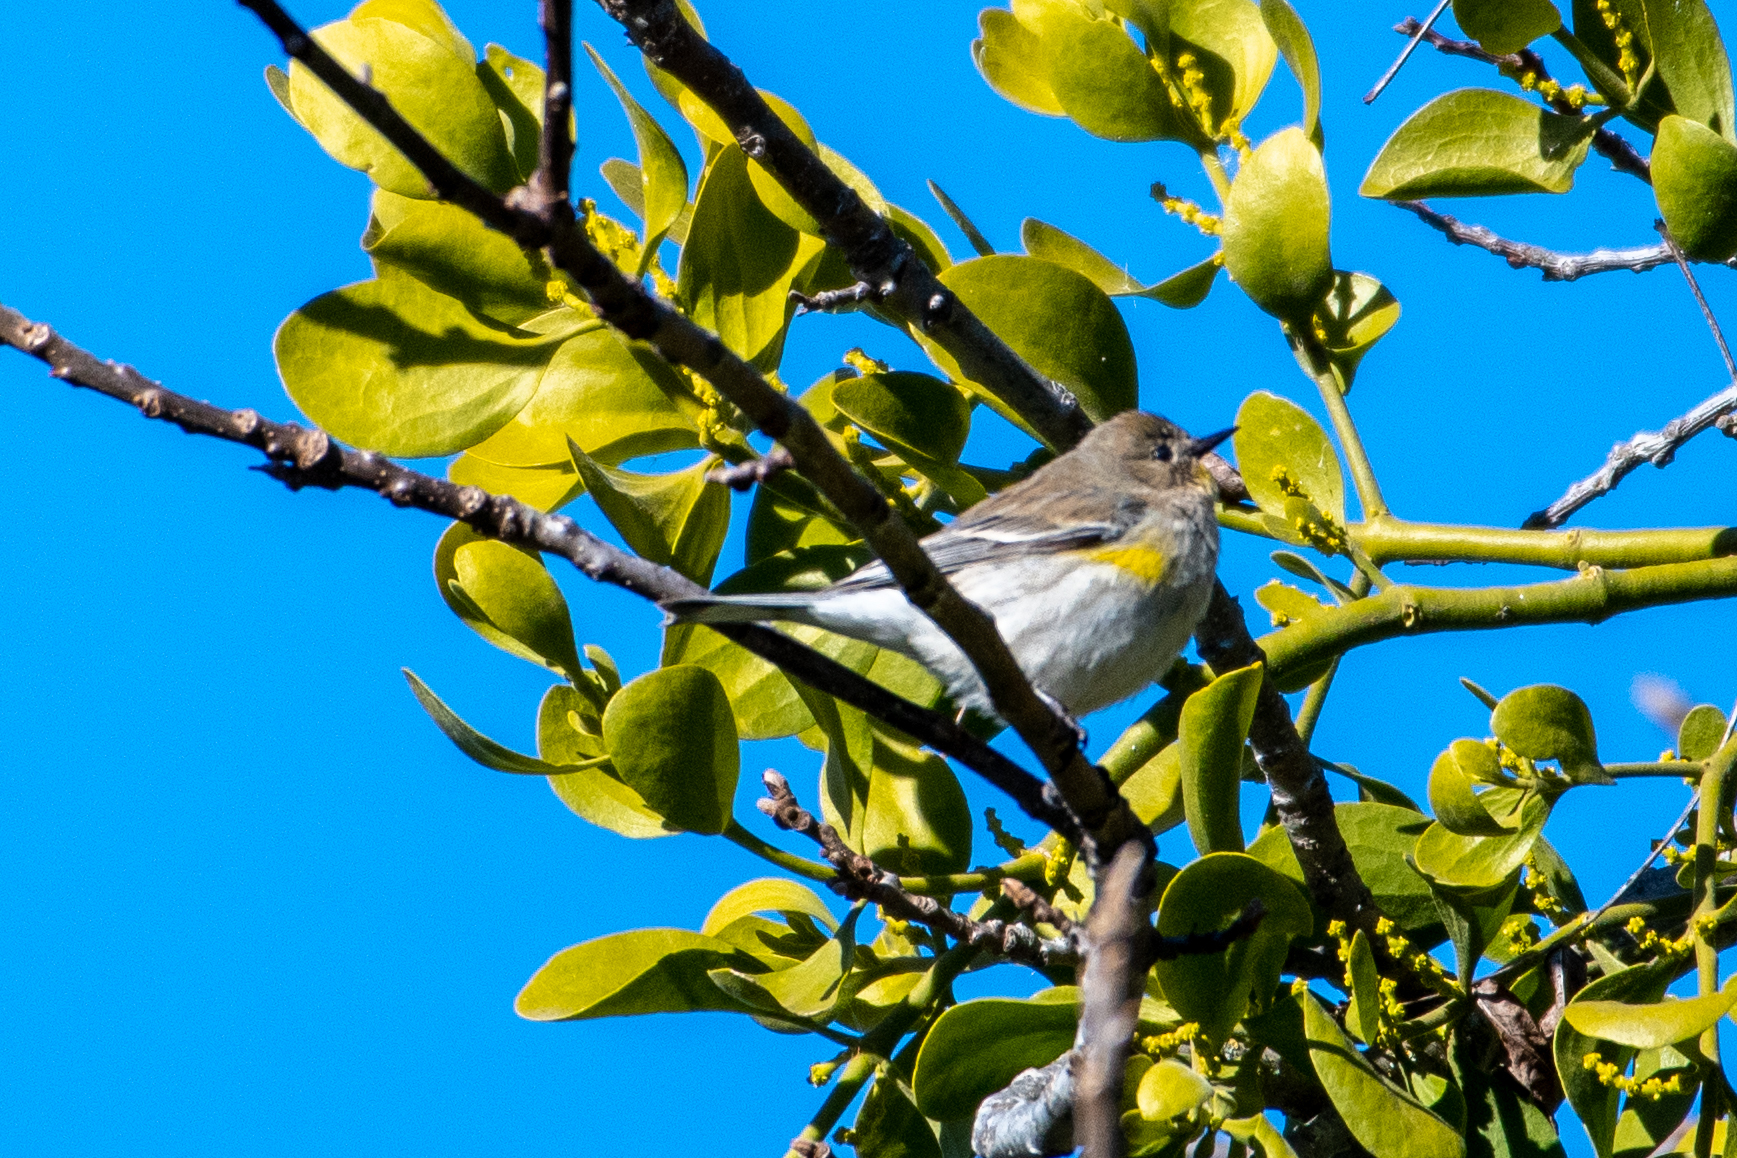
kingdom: Animalia
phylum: Chordata
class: Aves
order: Passeriformes
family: Parulidae
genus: Setophaga
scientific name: Setophaga coronata
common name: Myrtle warbler
